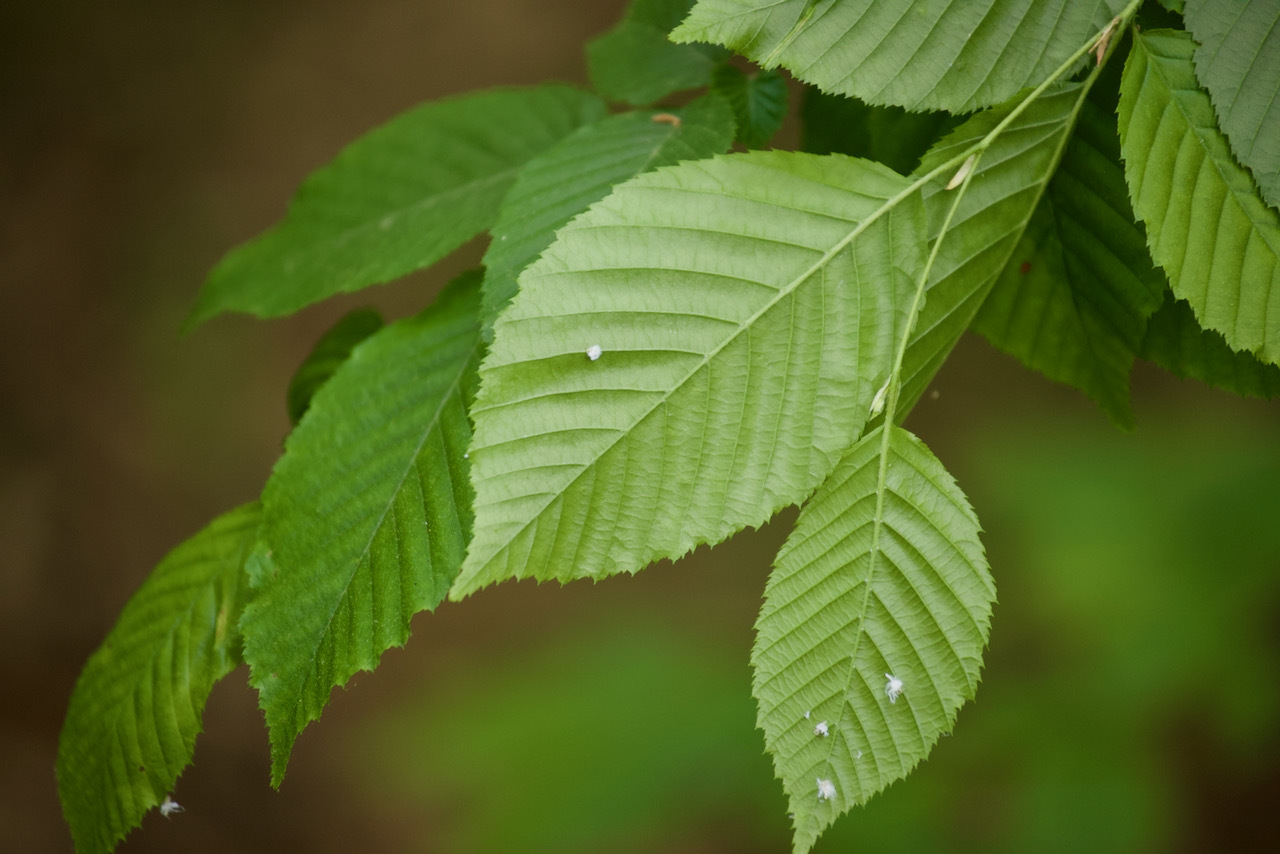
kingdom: Plantae
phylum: Tracheophyta
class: Magnoliopsida
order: Fagales
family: Betulaceae
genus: Carpinus
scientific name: Carpinus caroliniana
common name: American hornbeam
